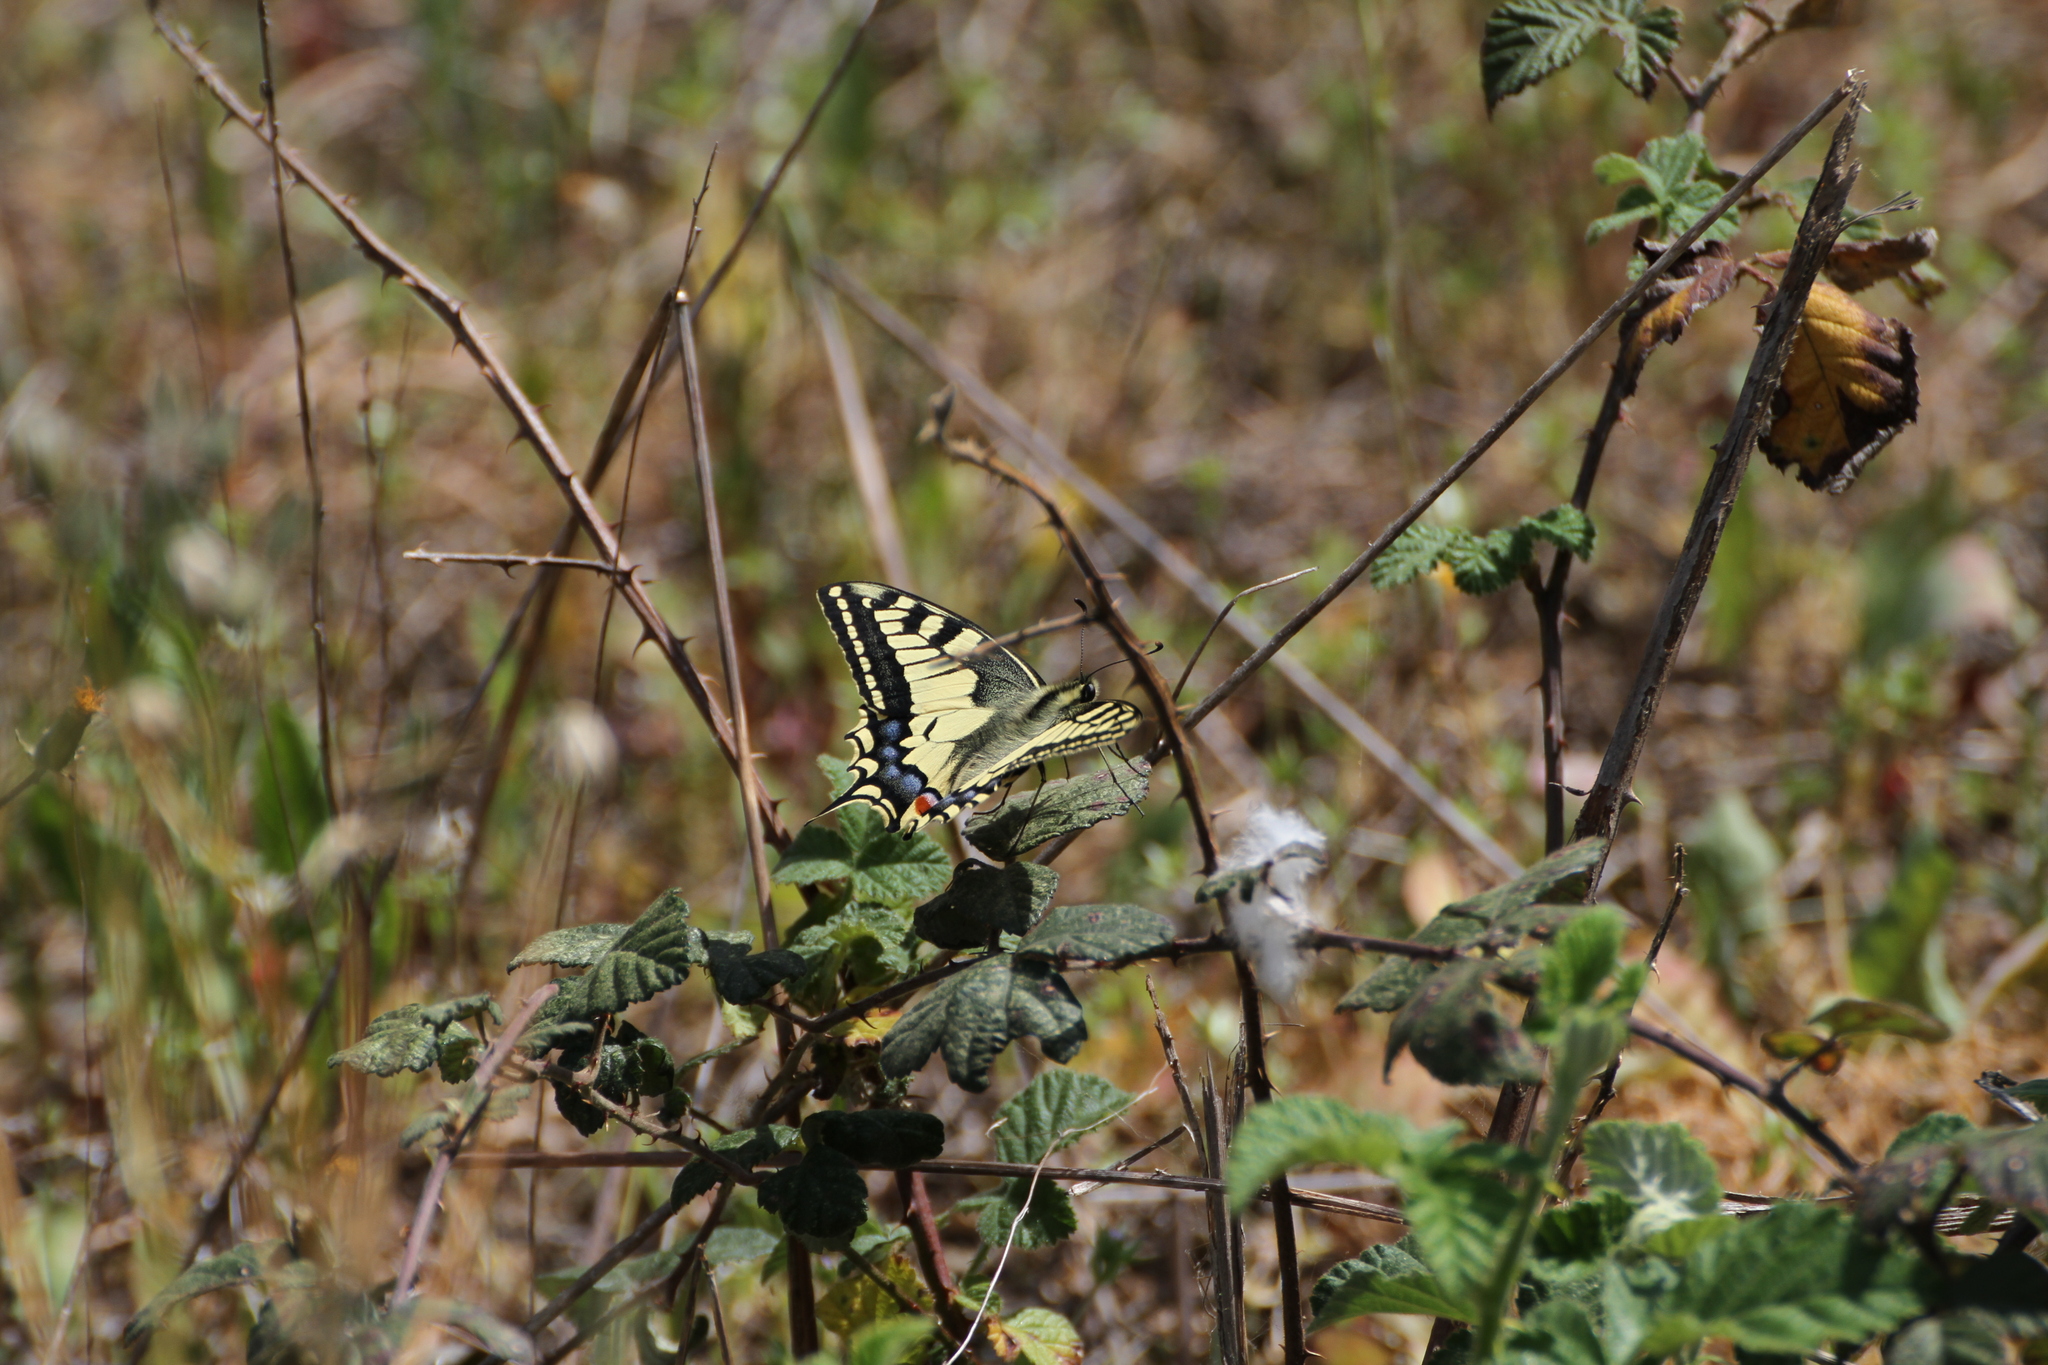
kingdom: Animalia
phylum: Arthropoda
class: Insecta
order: Lepidoptera
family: Papilionidae
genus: Papilio
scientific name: Papilio machaon
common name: Swallowtail
